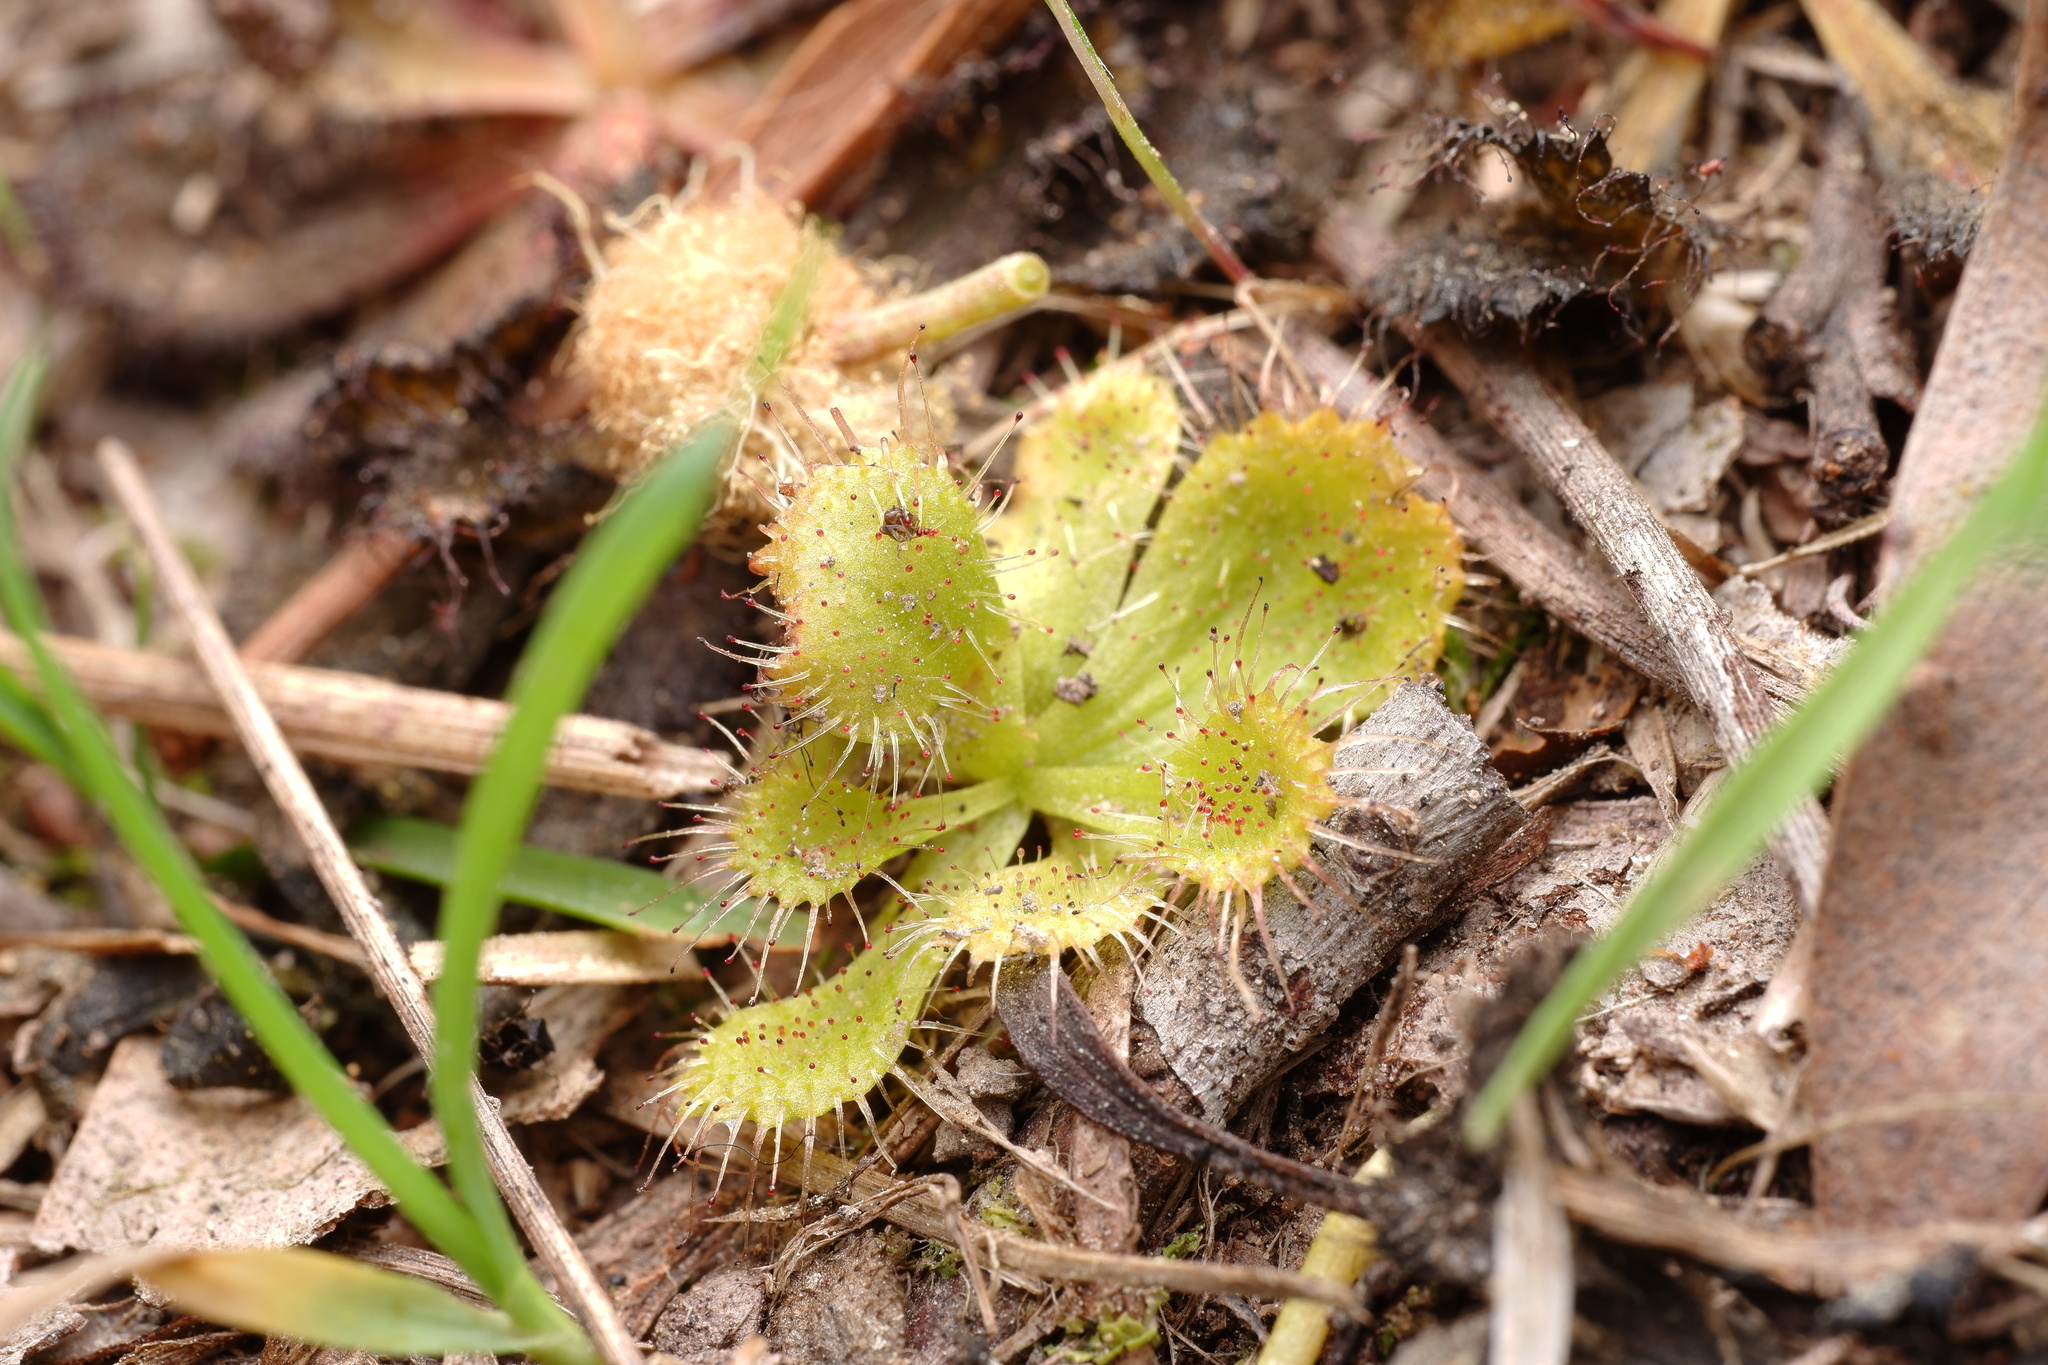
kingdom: Plantae
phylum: Tracheophyta
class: Magnoliopsida
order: Caryophyllales
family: Droseraceae
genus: Drosera
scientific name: Drosera aberrans
